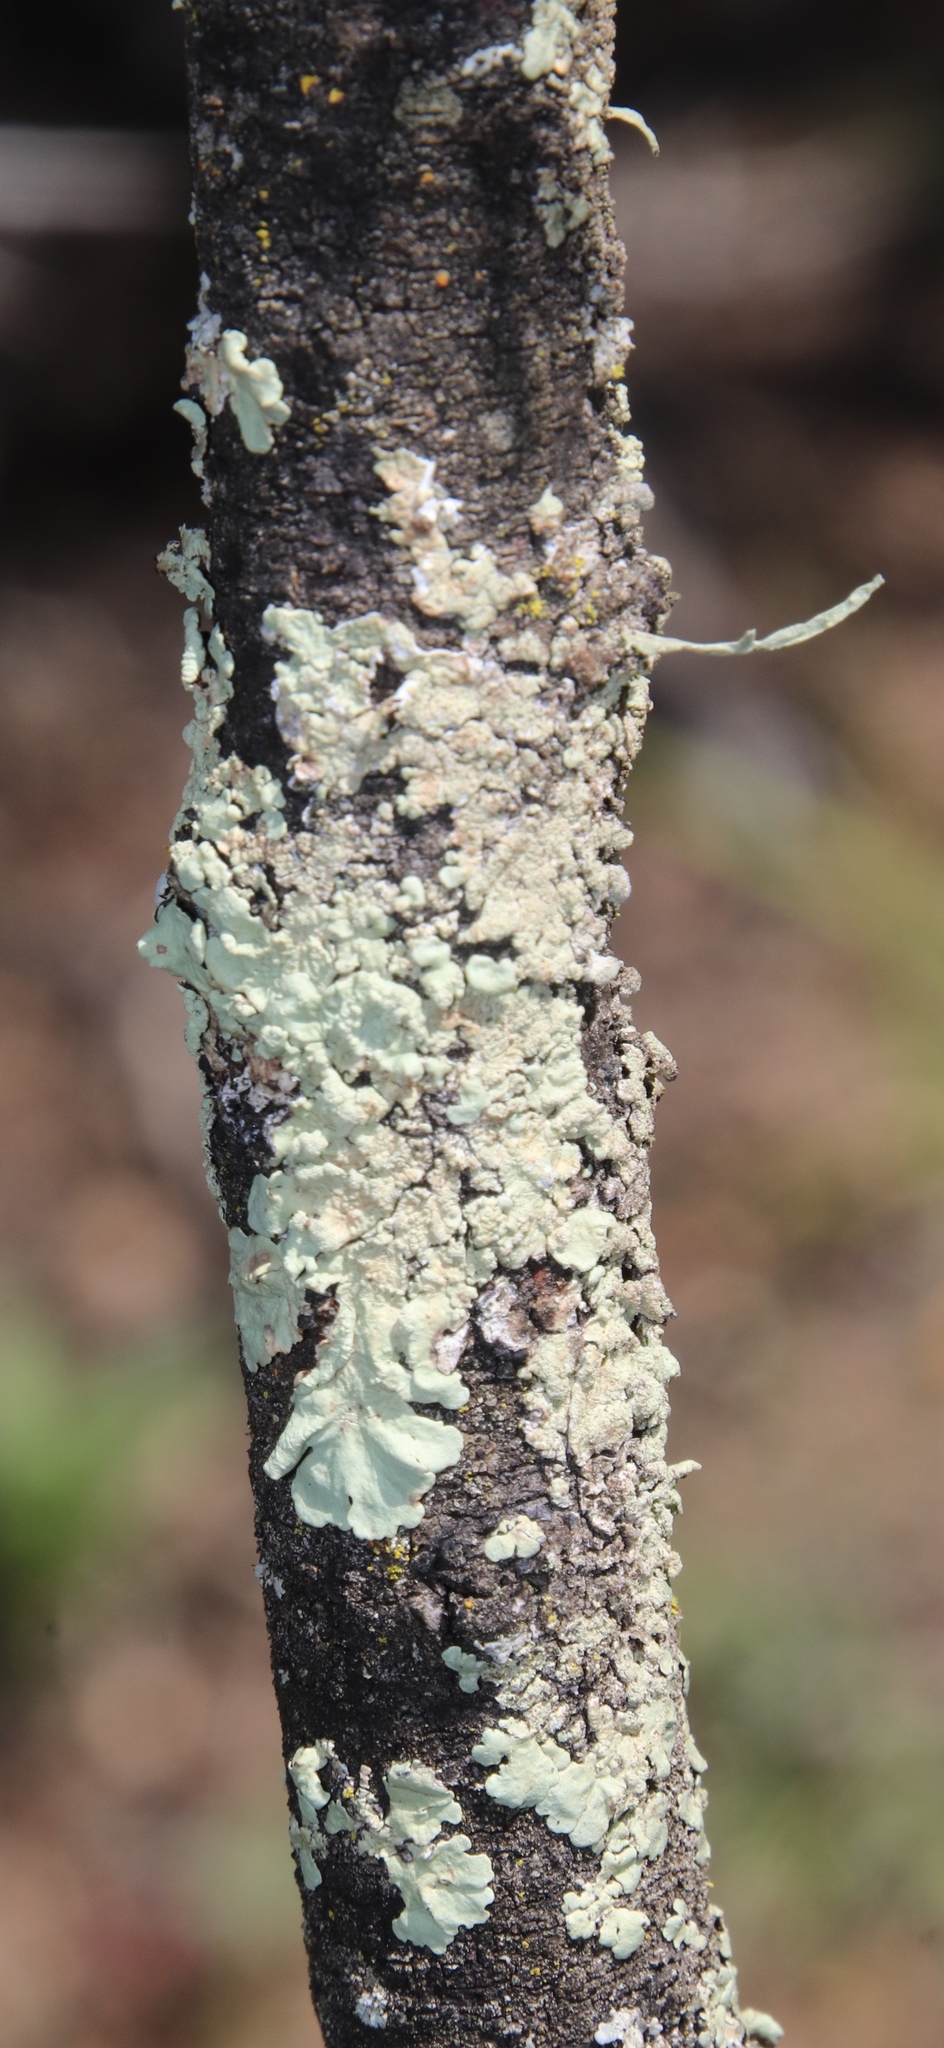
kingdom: Fungi
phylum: Ascomycota
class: Lecanoromycetes
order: Lecanorales
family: Parmeliaceae
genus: Flavoparmelia
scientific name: Flavoparmelia soredians
